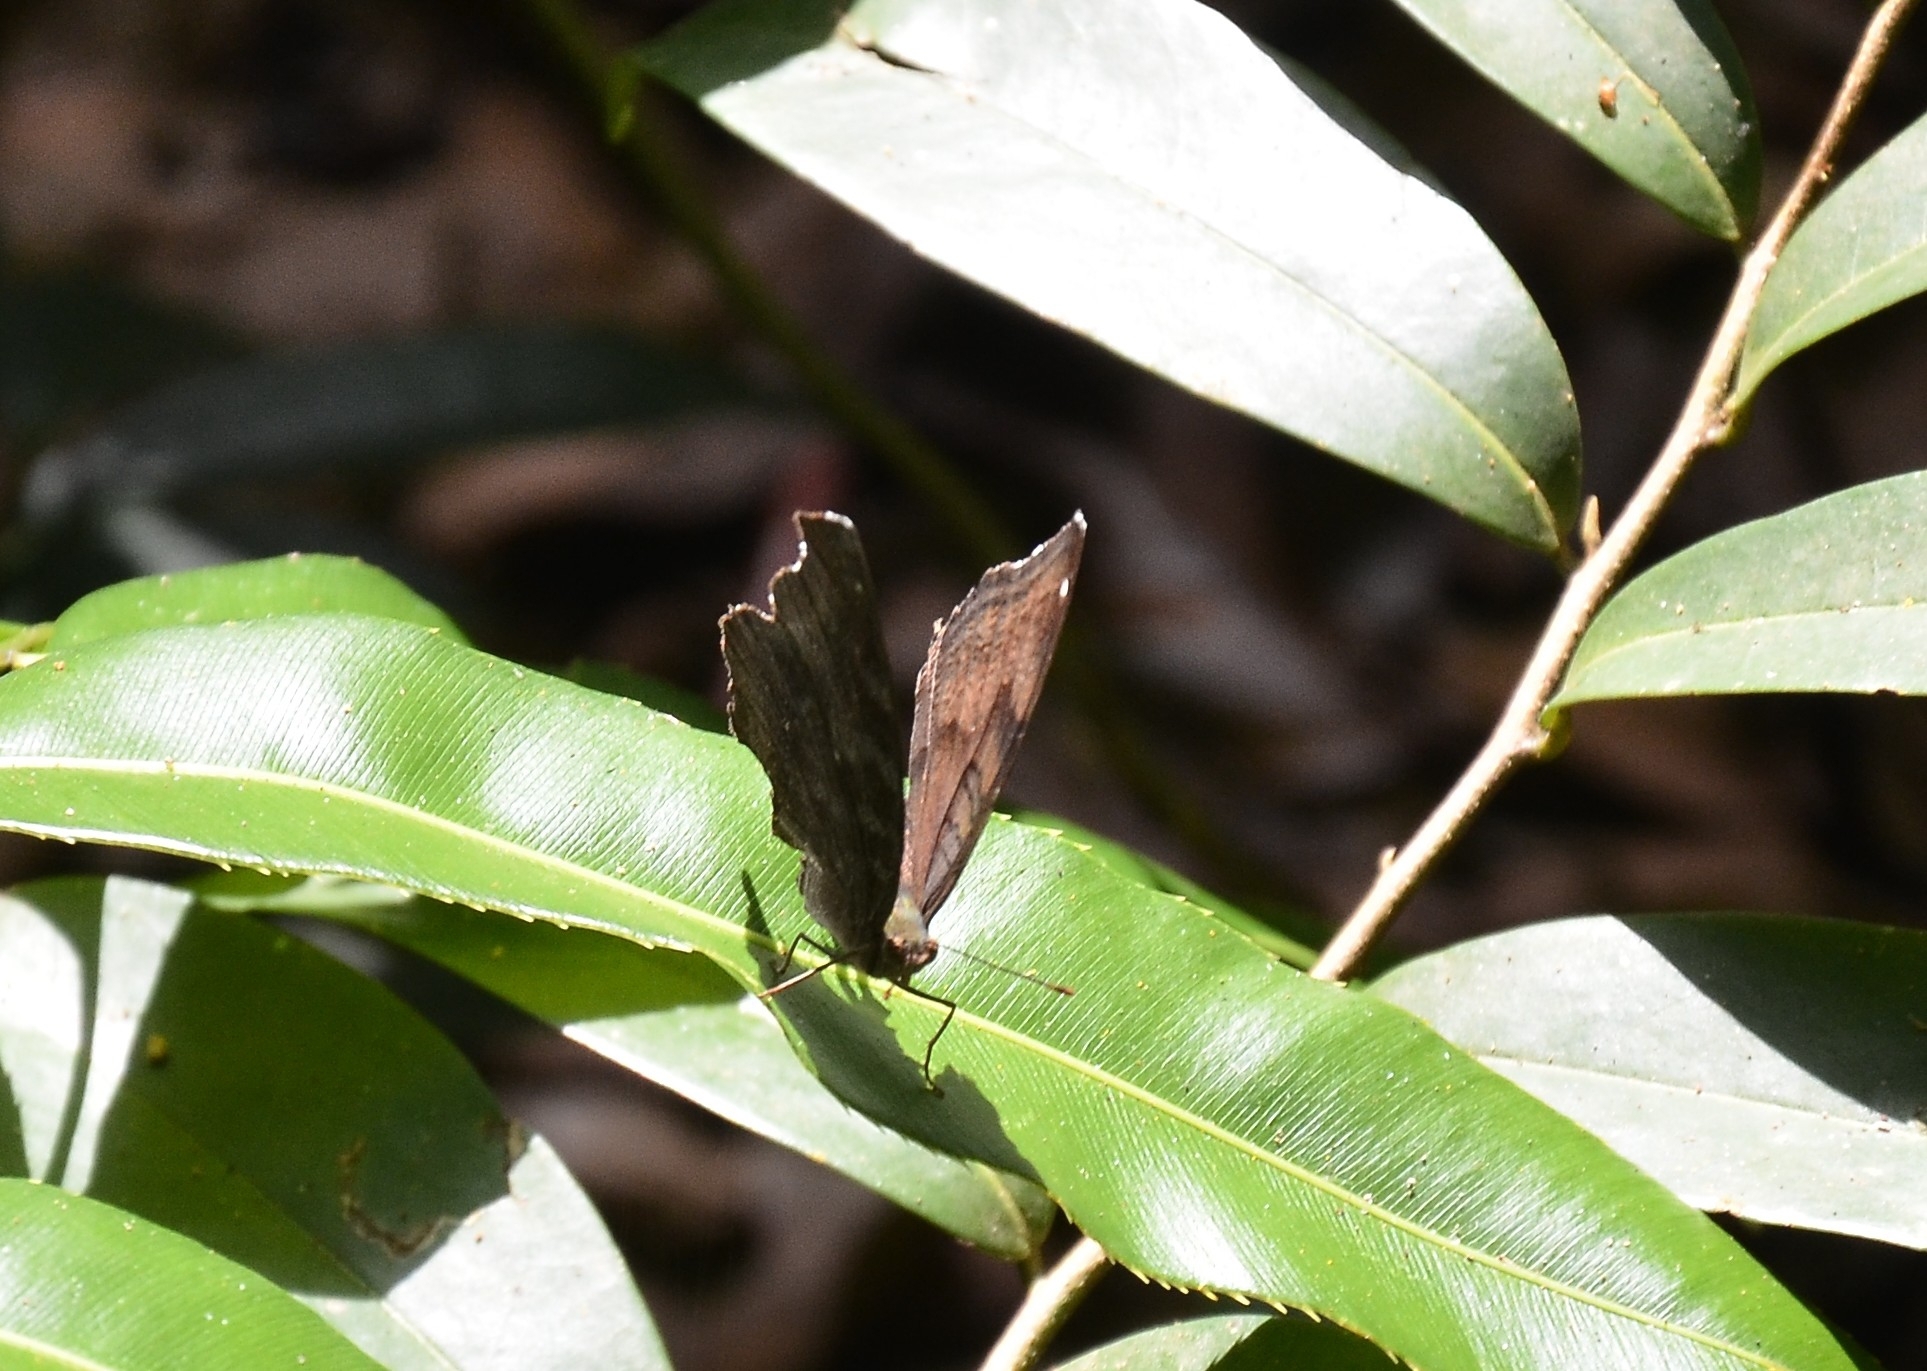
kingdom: Animalia
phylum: Arthropoda
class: Insecta
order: Lepidoptera
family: Nymphalidae
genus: Junonia
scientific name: Junonia iphita
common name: Chocolate pansy
